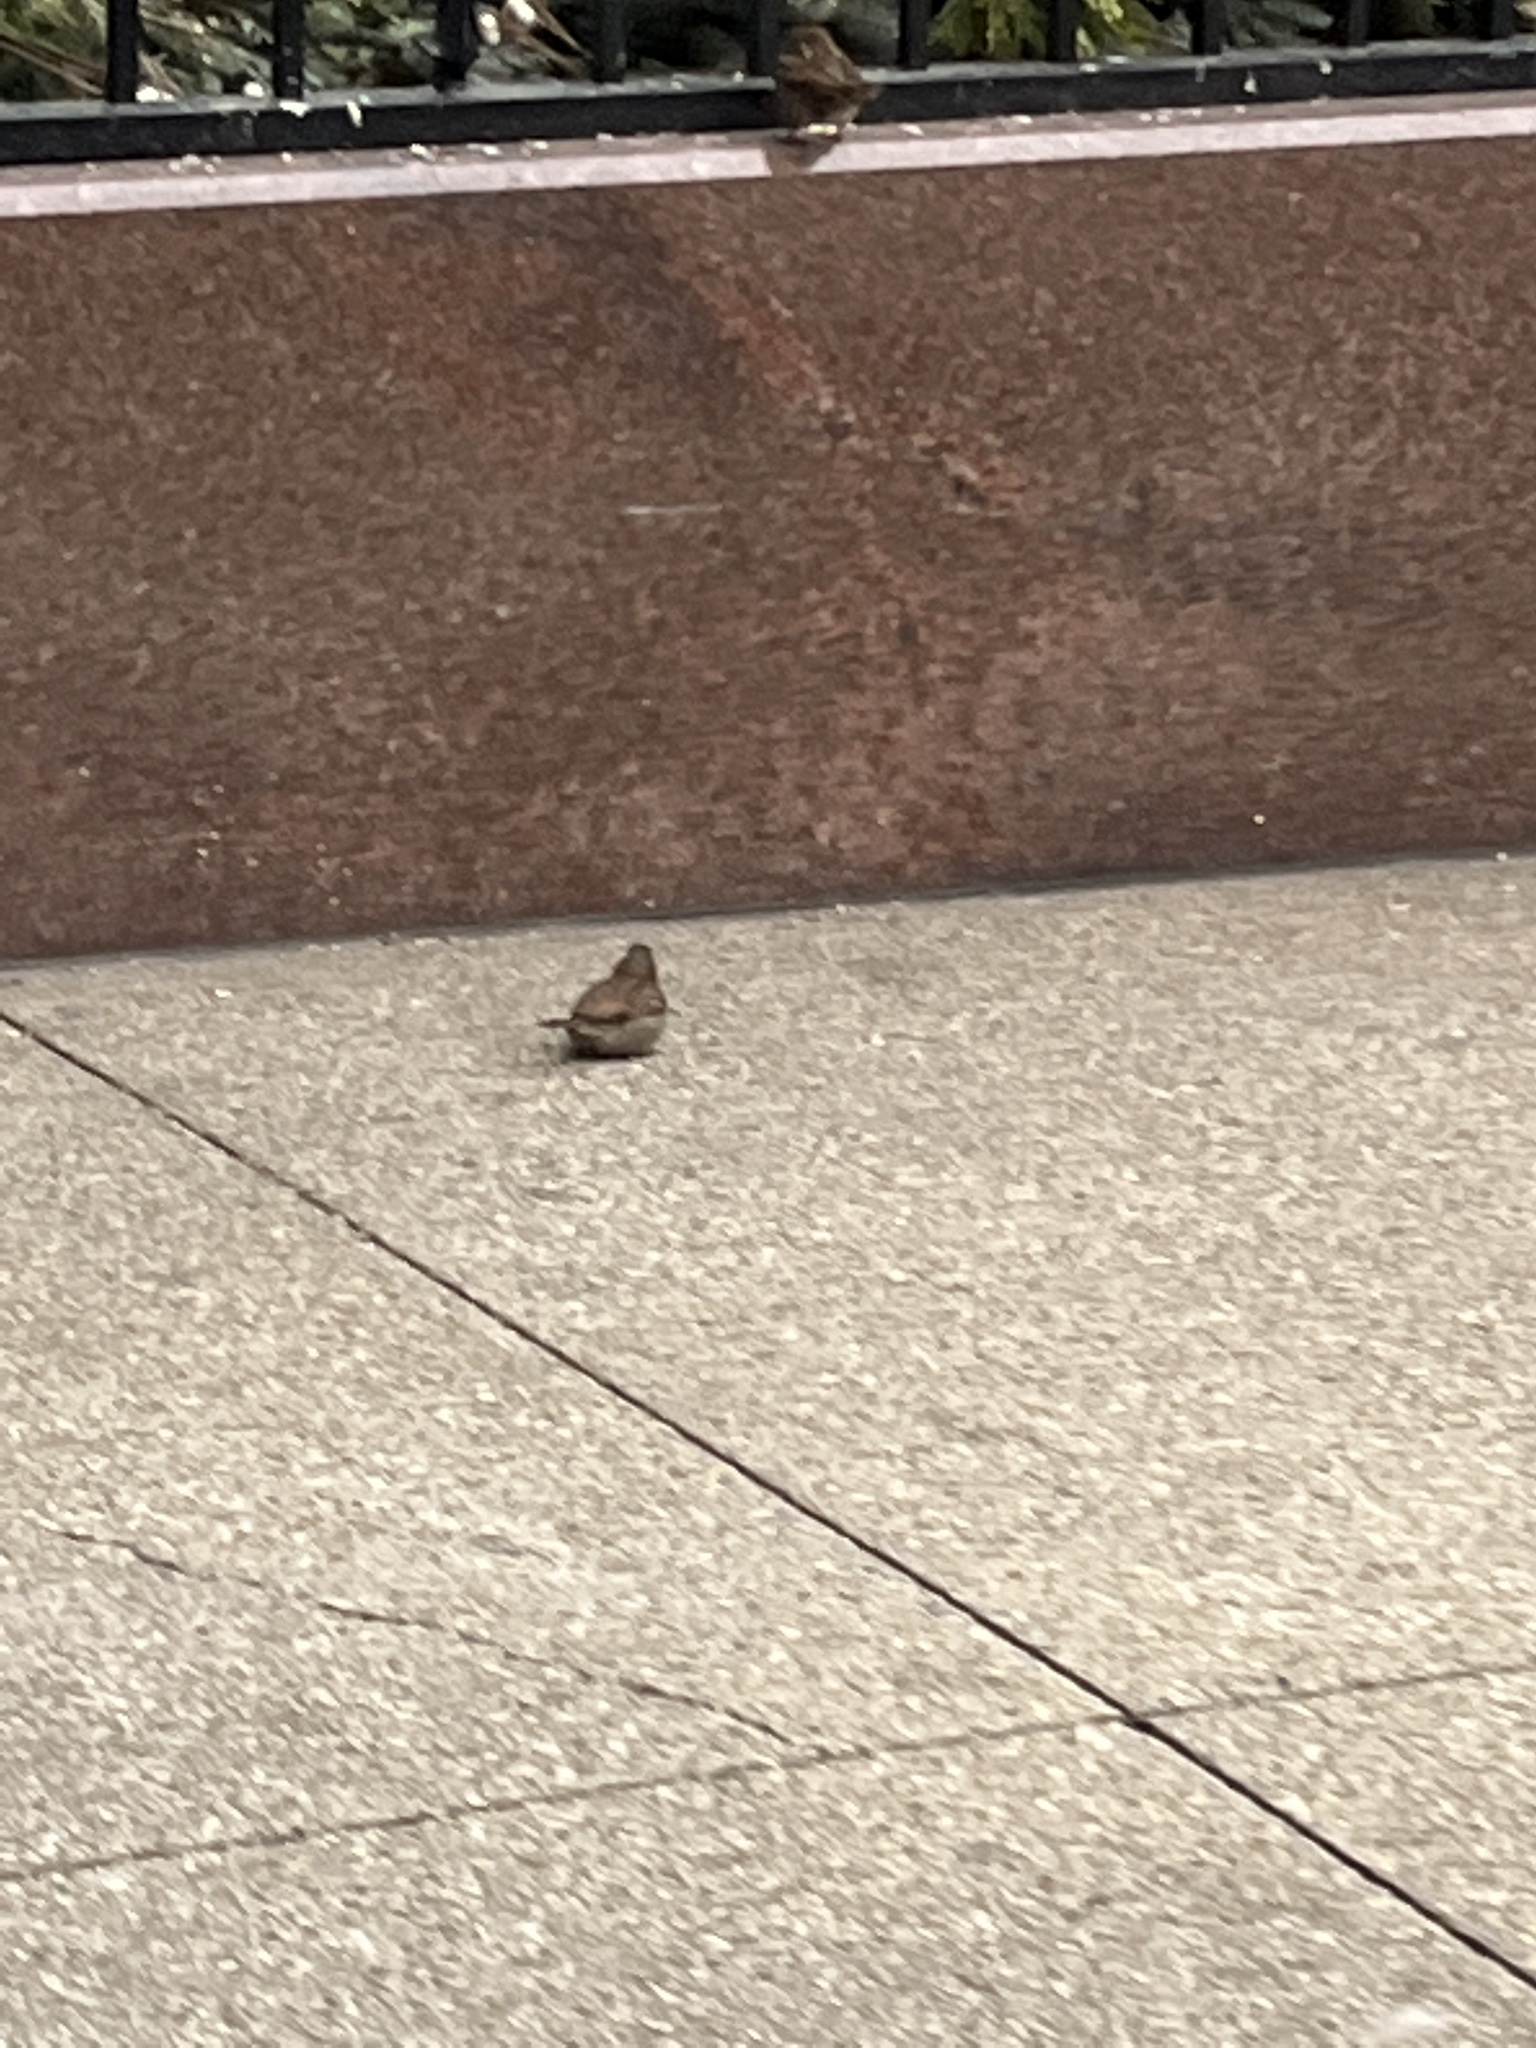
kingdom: Animalia
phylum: Chordata
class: Aves
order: Passeriformes
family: Passeridae
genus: Passer
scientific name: Passer domesticus
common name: House sparrow
